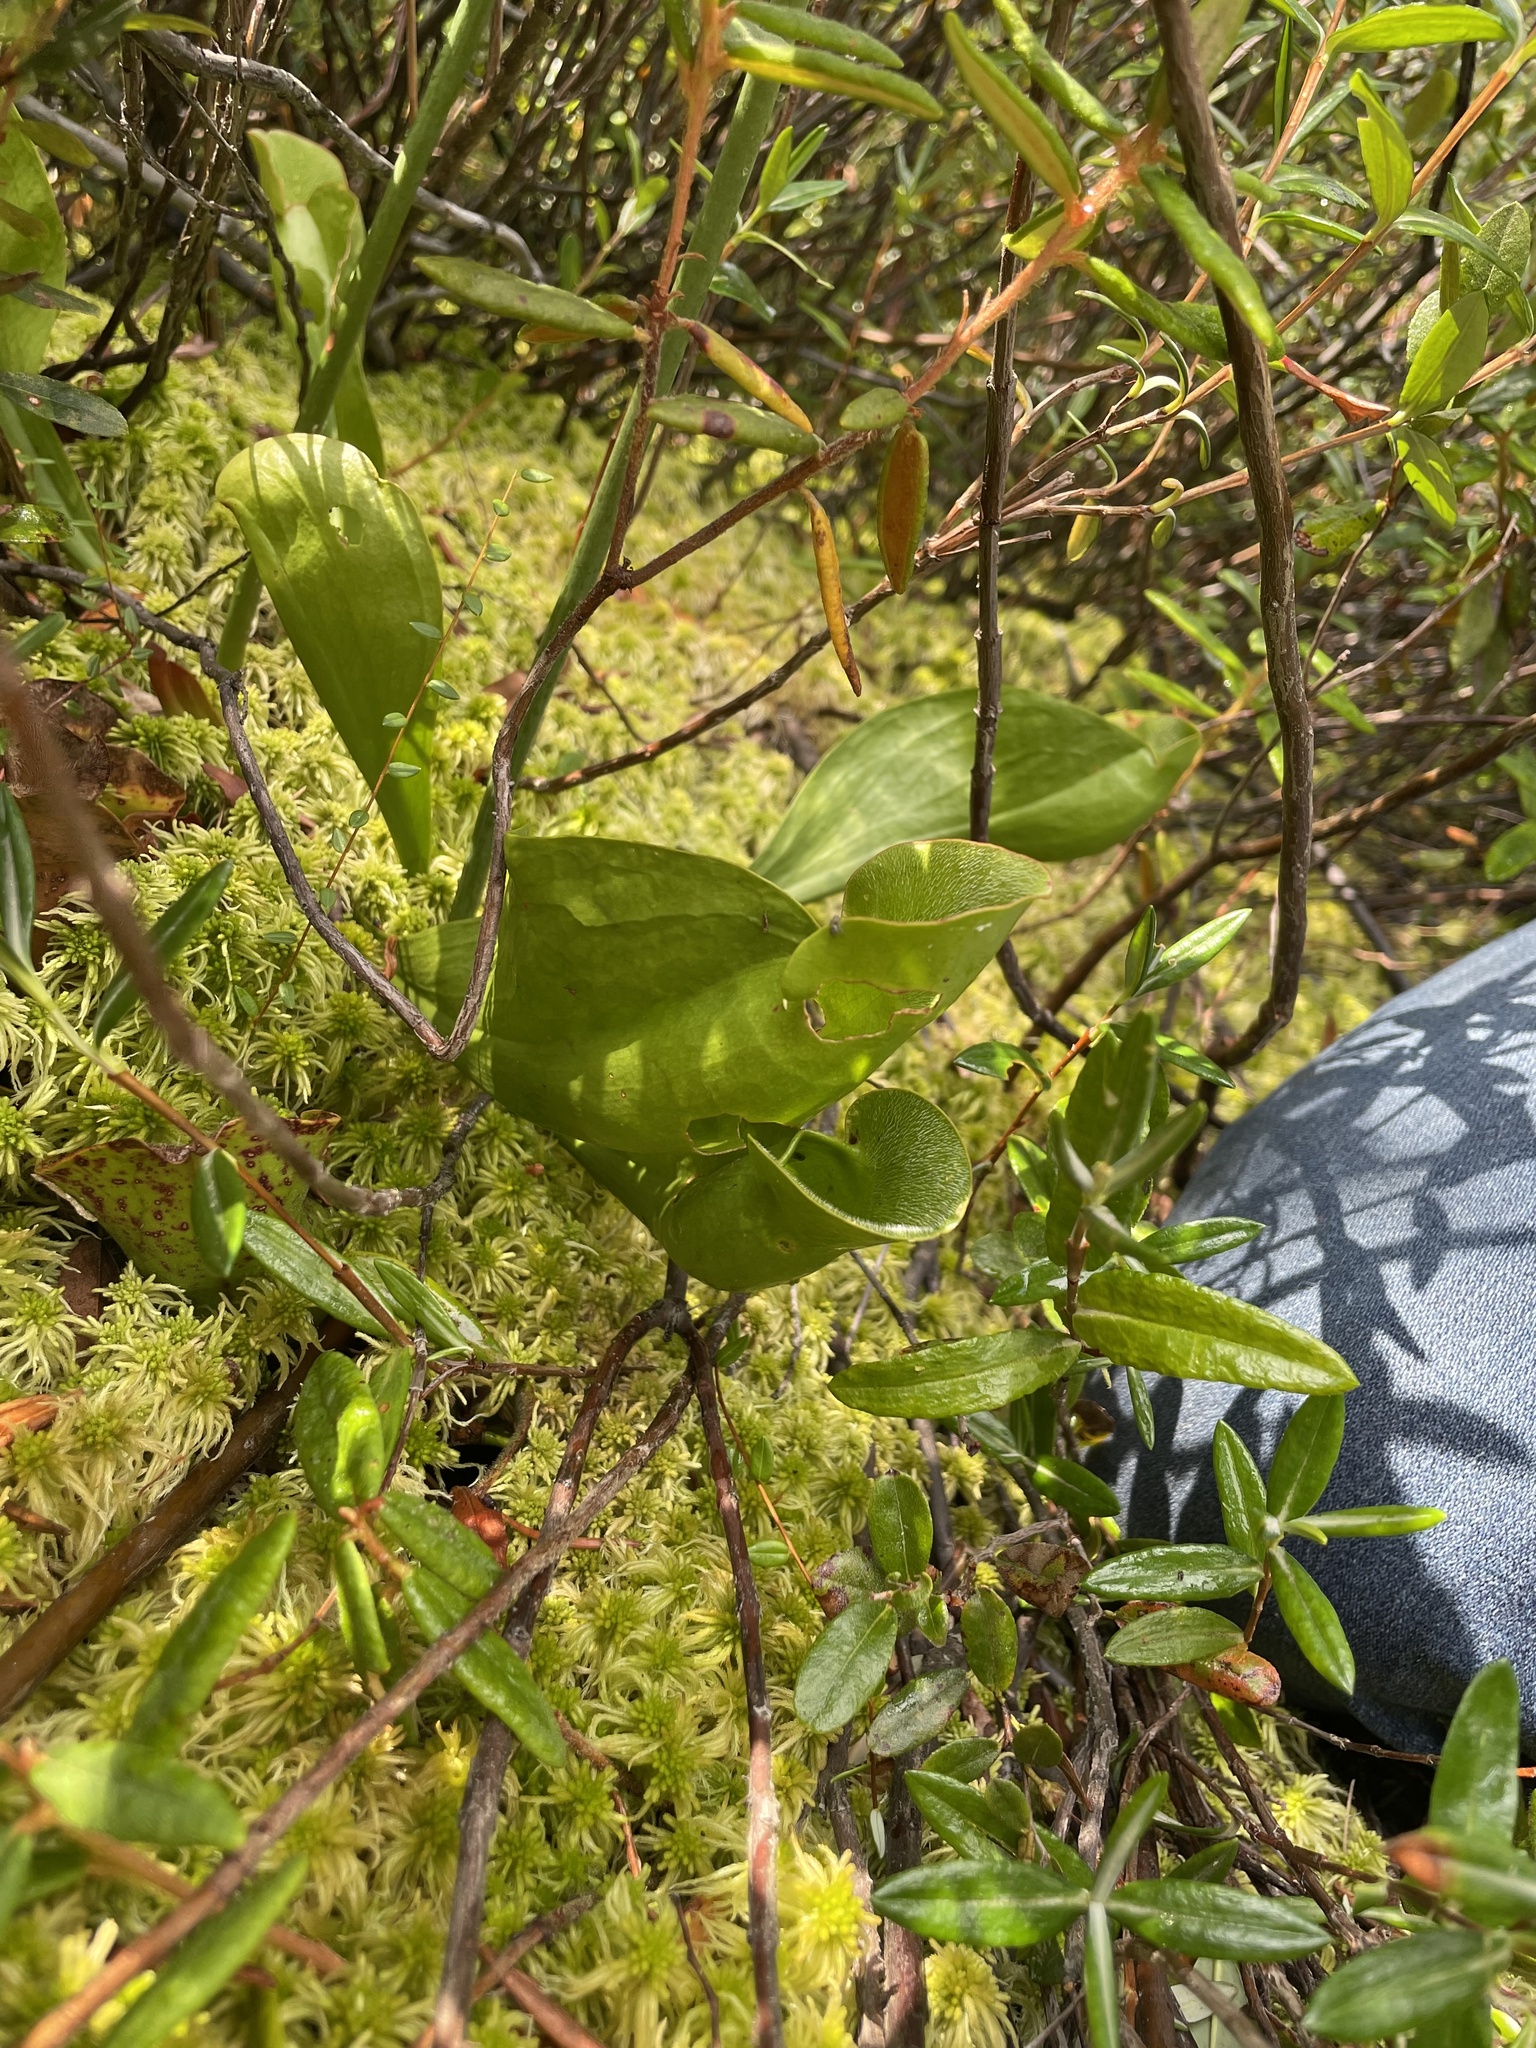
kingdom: Plantae
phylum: Tracheophyta
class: Magnoliopsida
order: Ericales
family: Sarraceniaceae
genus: Sarracenia
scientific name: Sarracenia purpurea
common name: Pitcherplant
